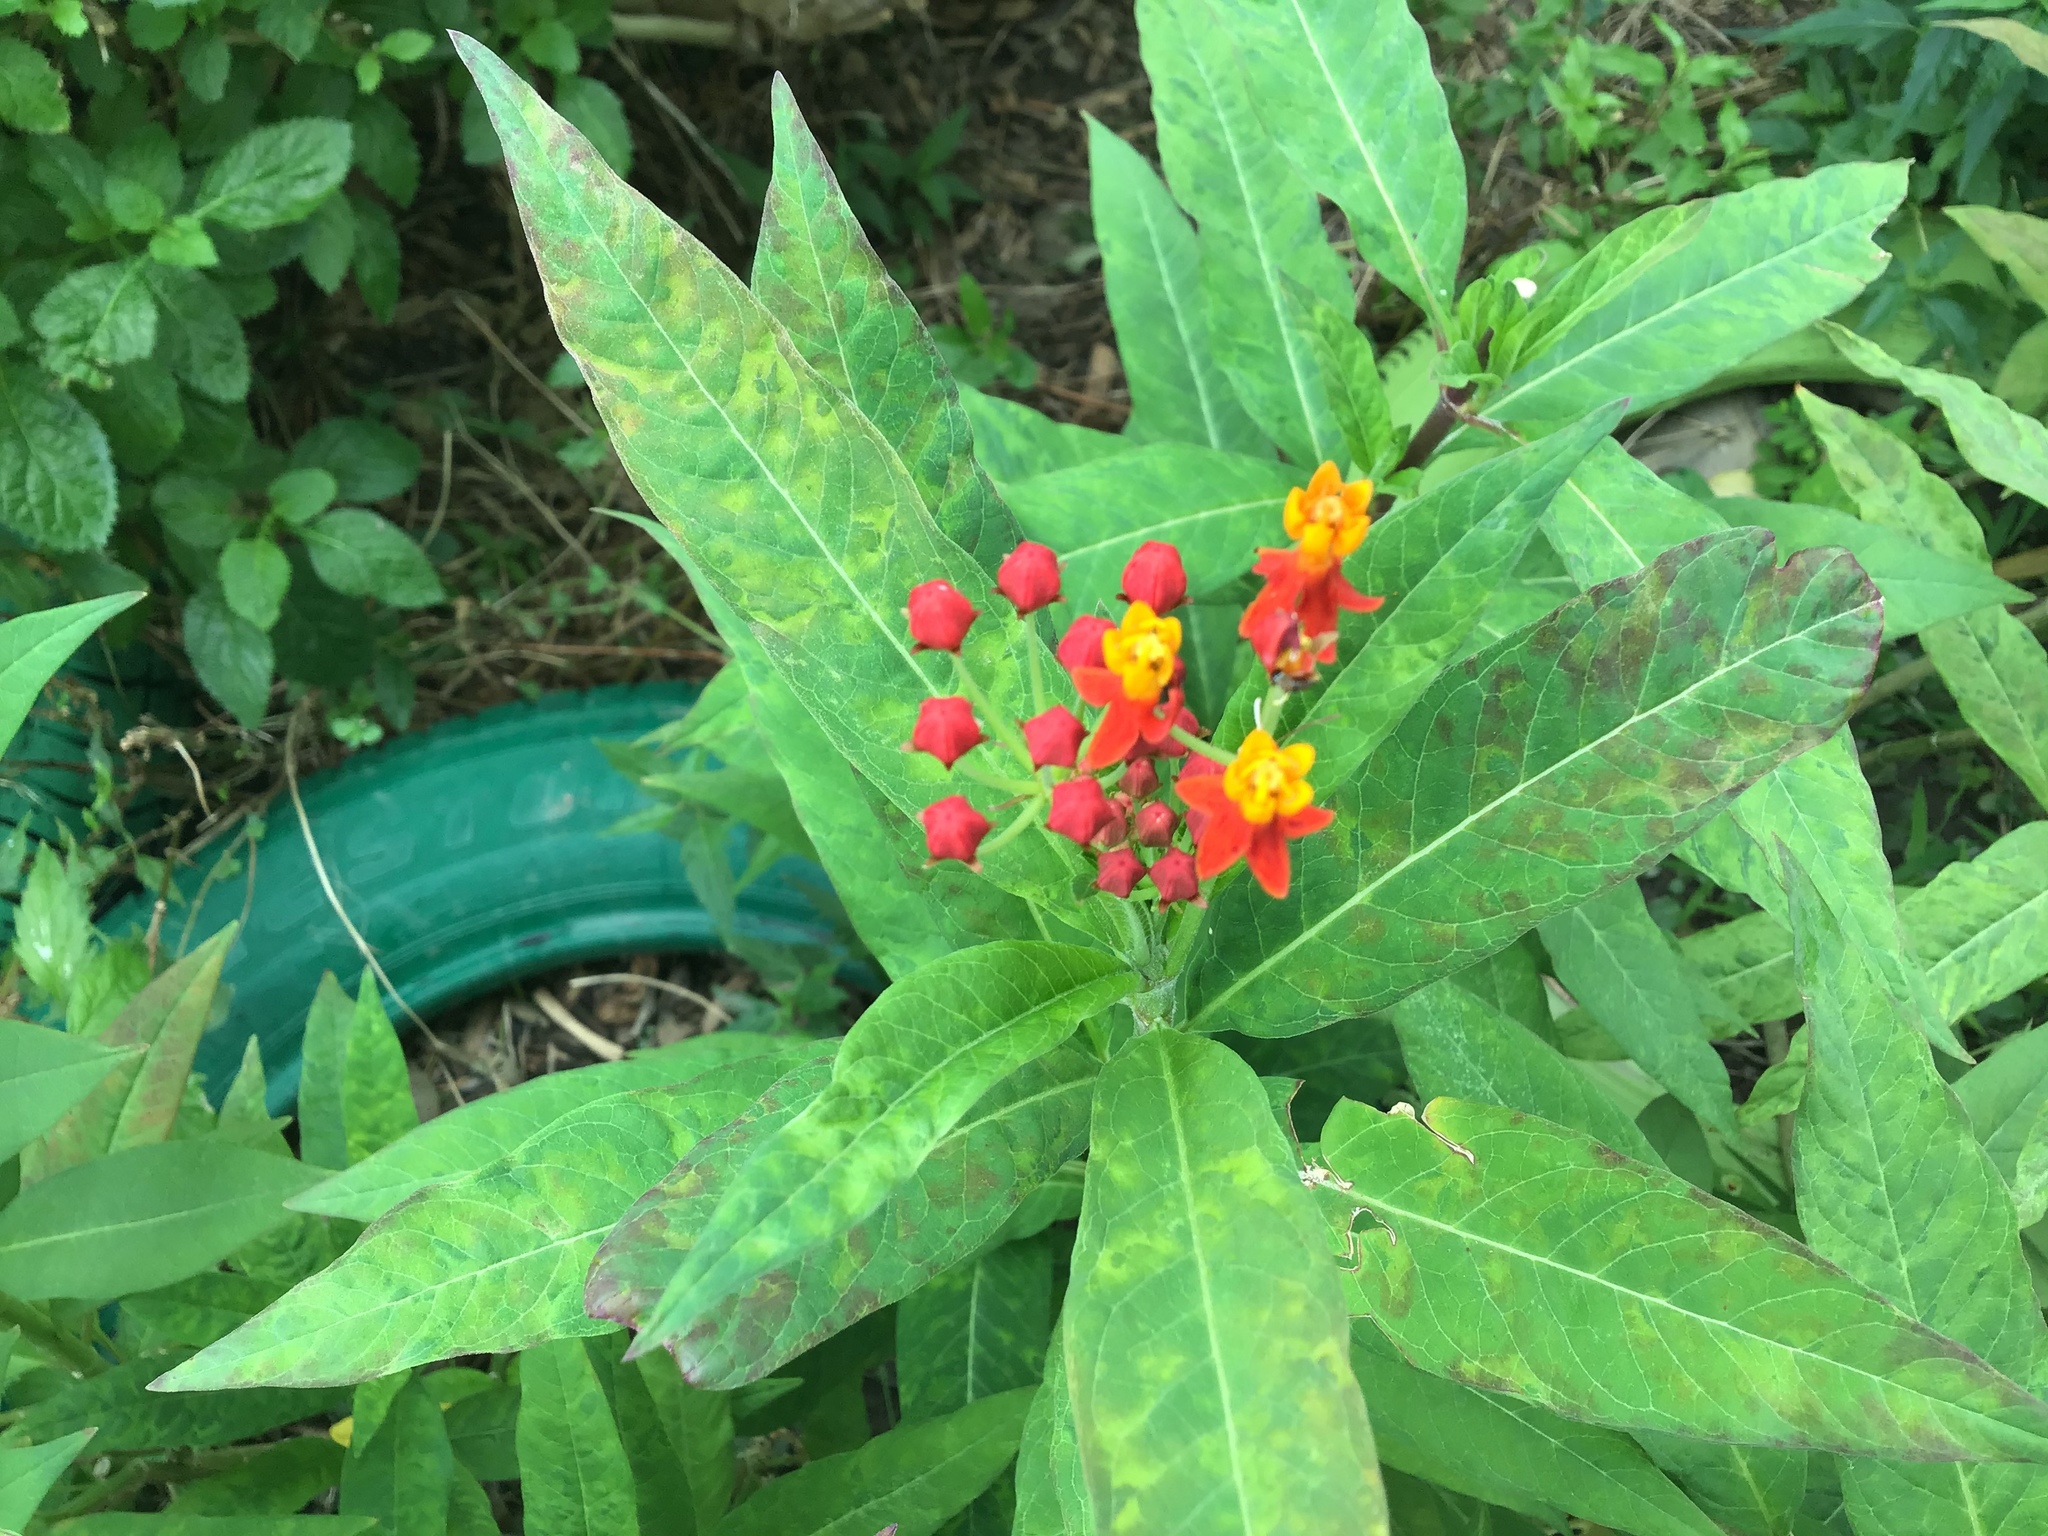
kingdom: Plantae
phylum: Tracheophyta
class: Magnoliopsida
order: Gentianales
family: Apocynaceae
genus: Asclepias
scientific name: Asclepias curassavica
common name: Bloodflower
